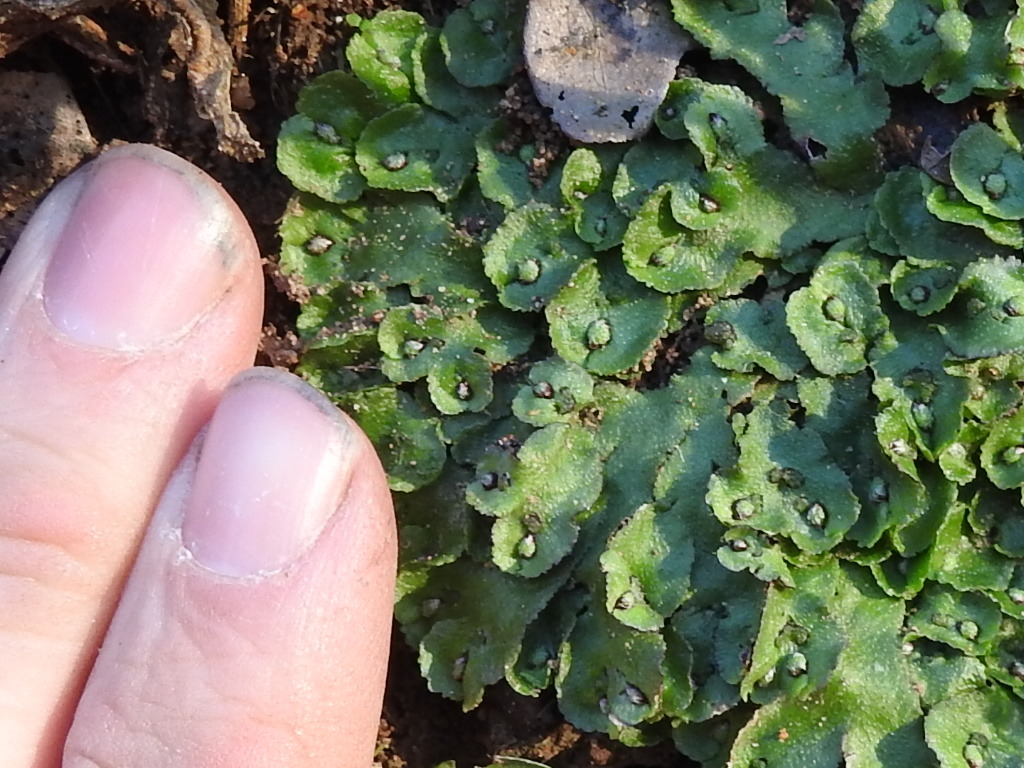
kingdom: Plantae
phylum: Marchantiophyta
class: Marchantiopsida
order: Marchantiales
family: Aytoniaceae
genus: Reboulia
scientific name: Reboulia hemisphaerica
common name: Purple-margined liverwort
